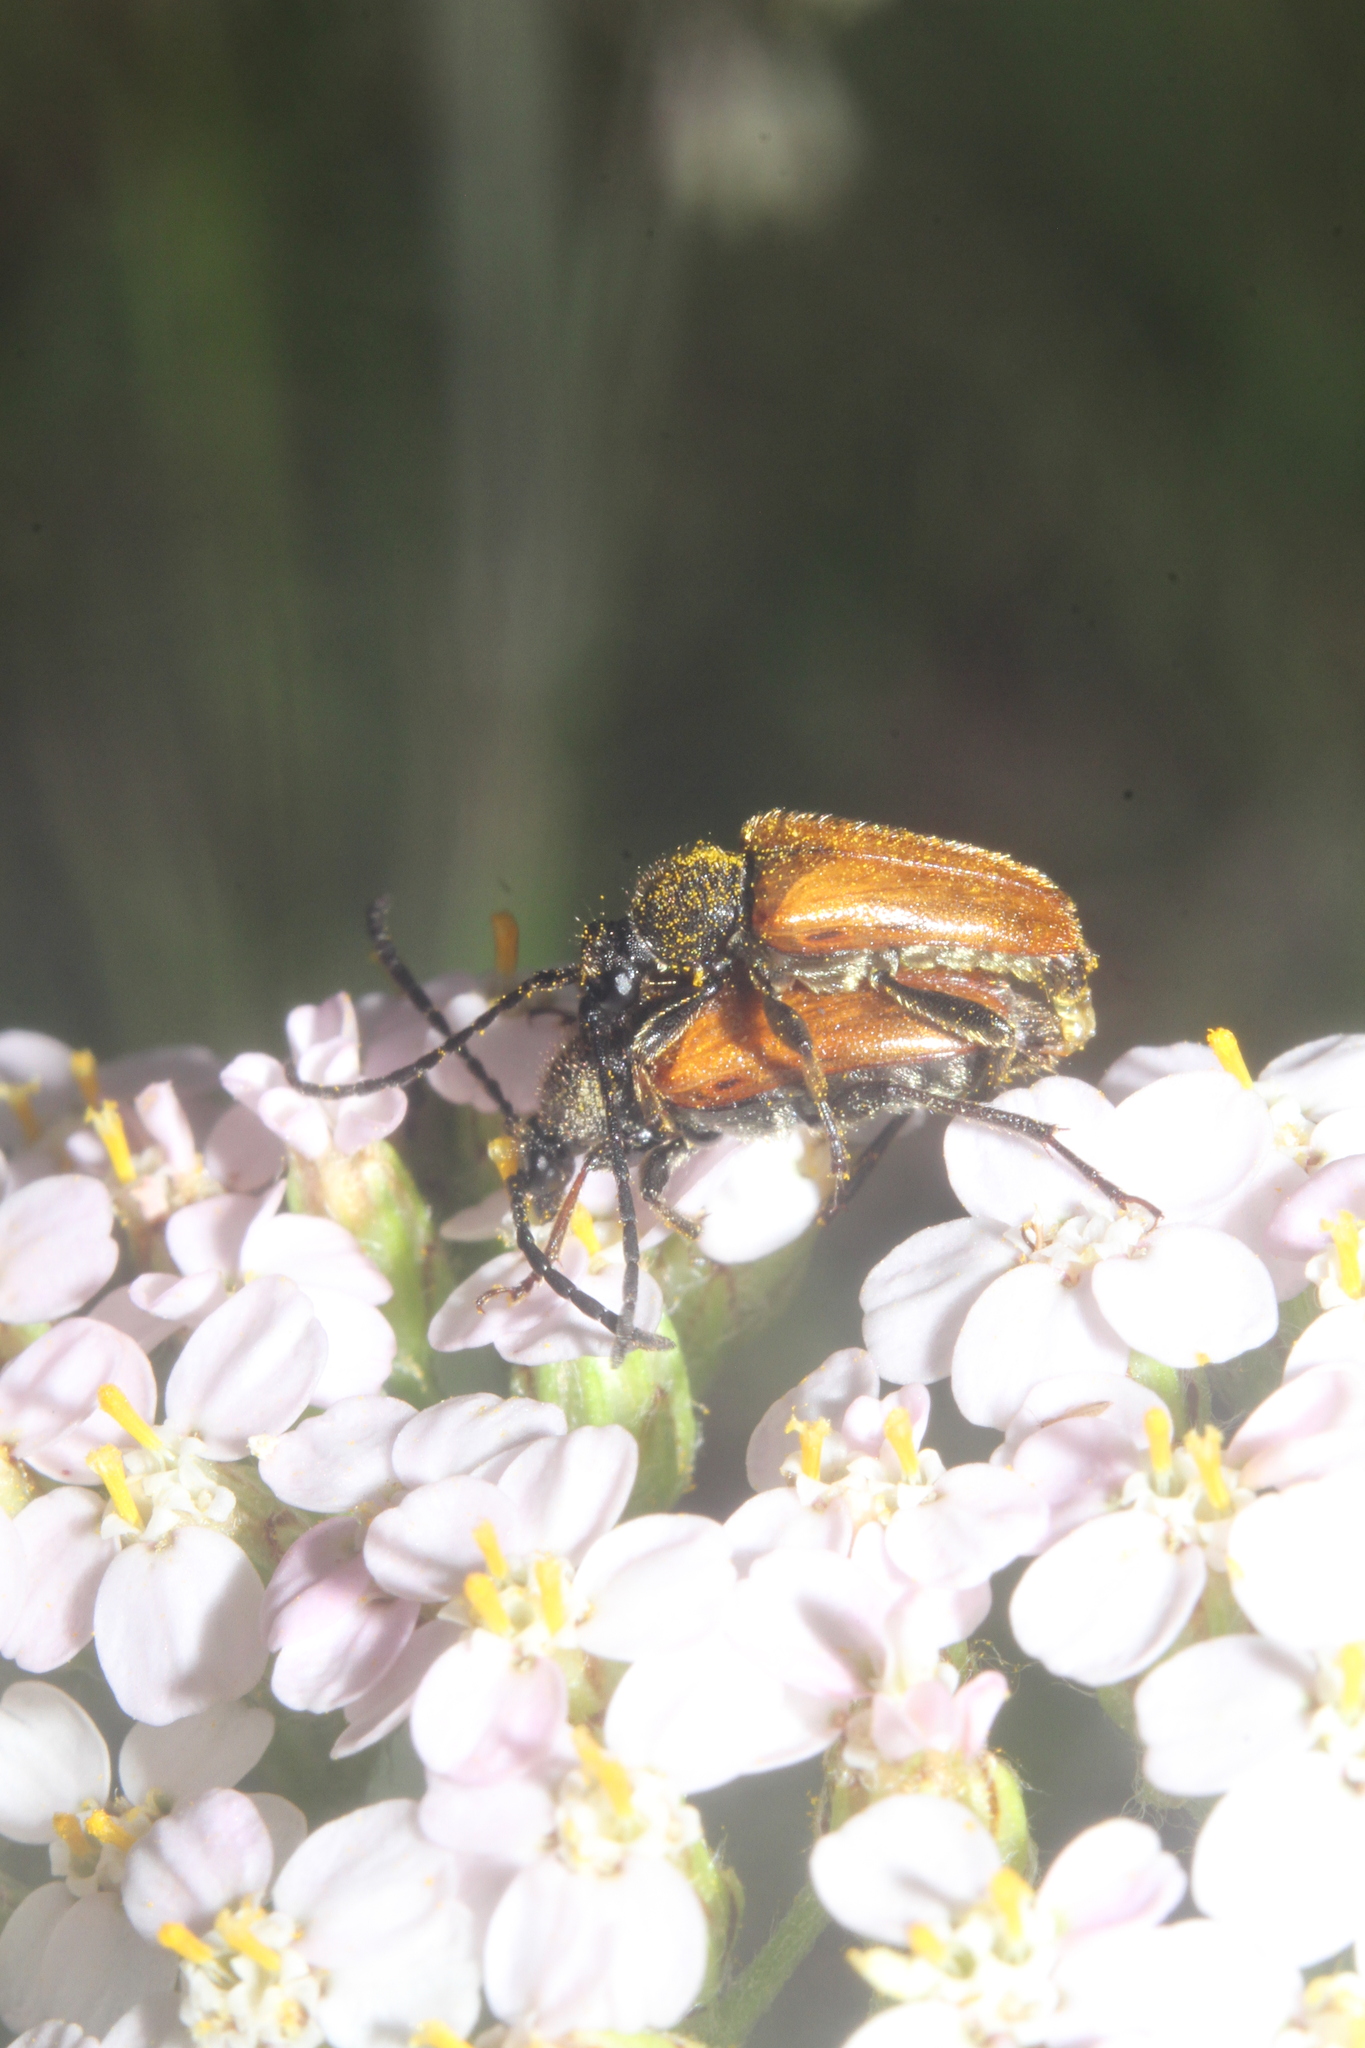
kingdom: Animalia
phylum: Arthropoda
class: Insecta
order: Coleoptera
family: Cerambycidae
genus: Pseudovadonia
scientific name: Pseudovadonia livida
